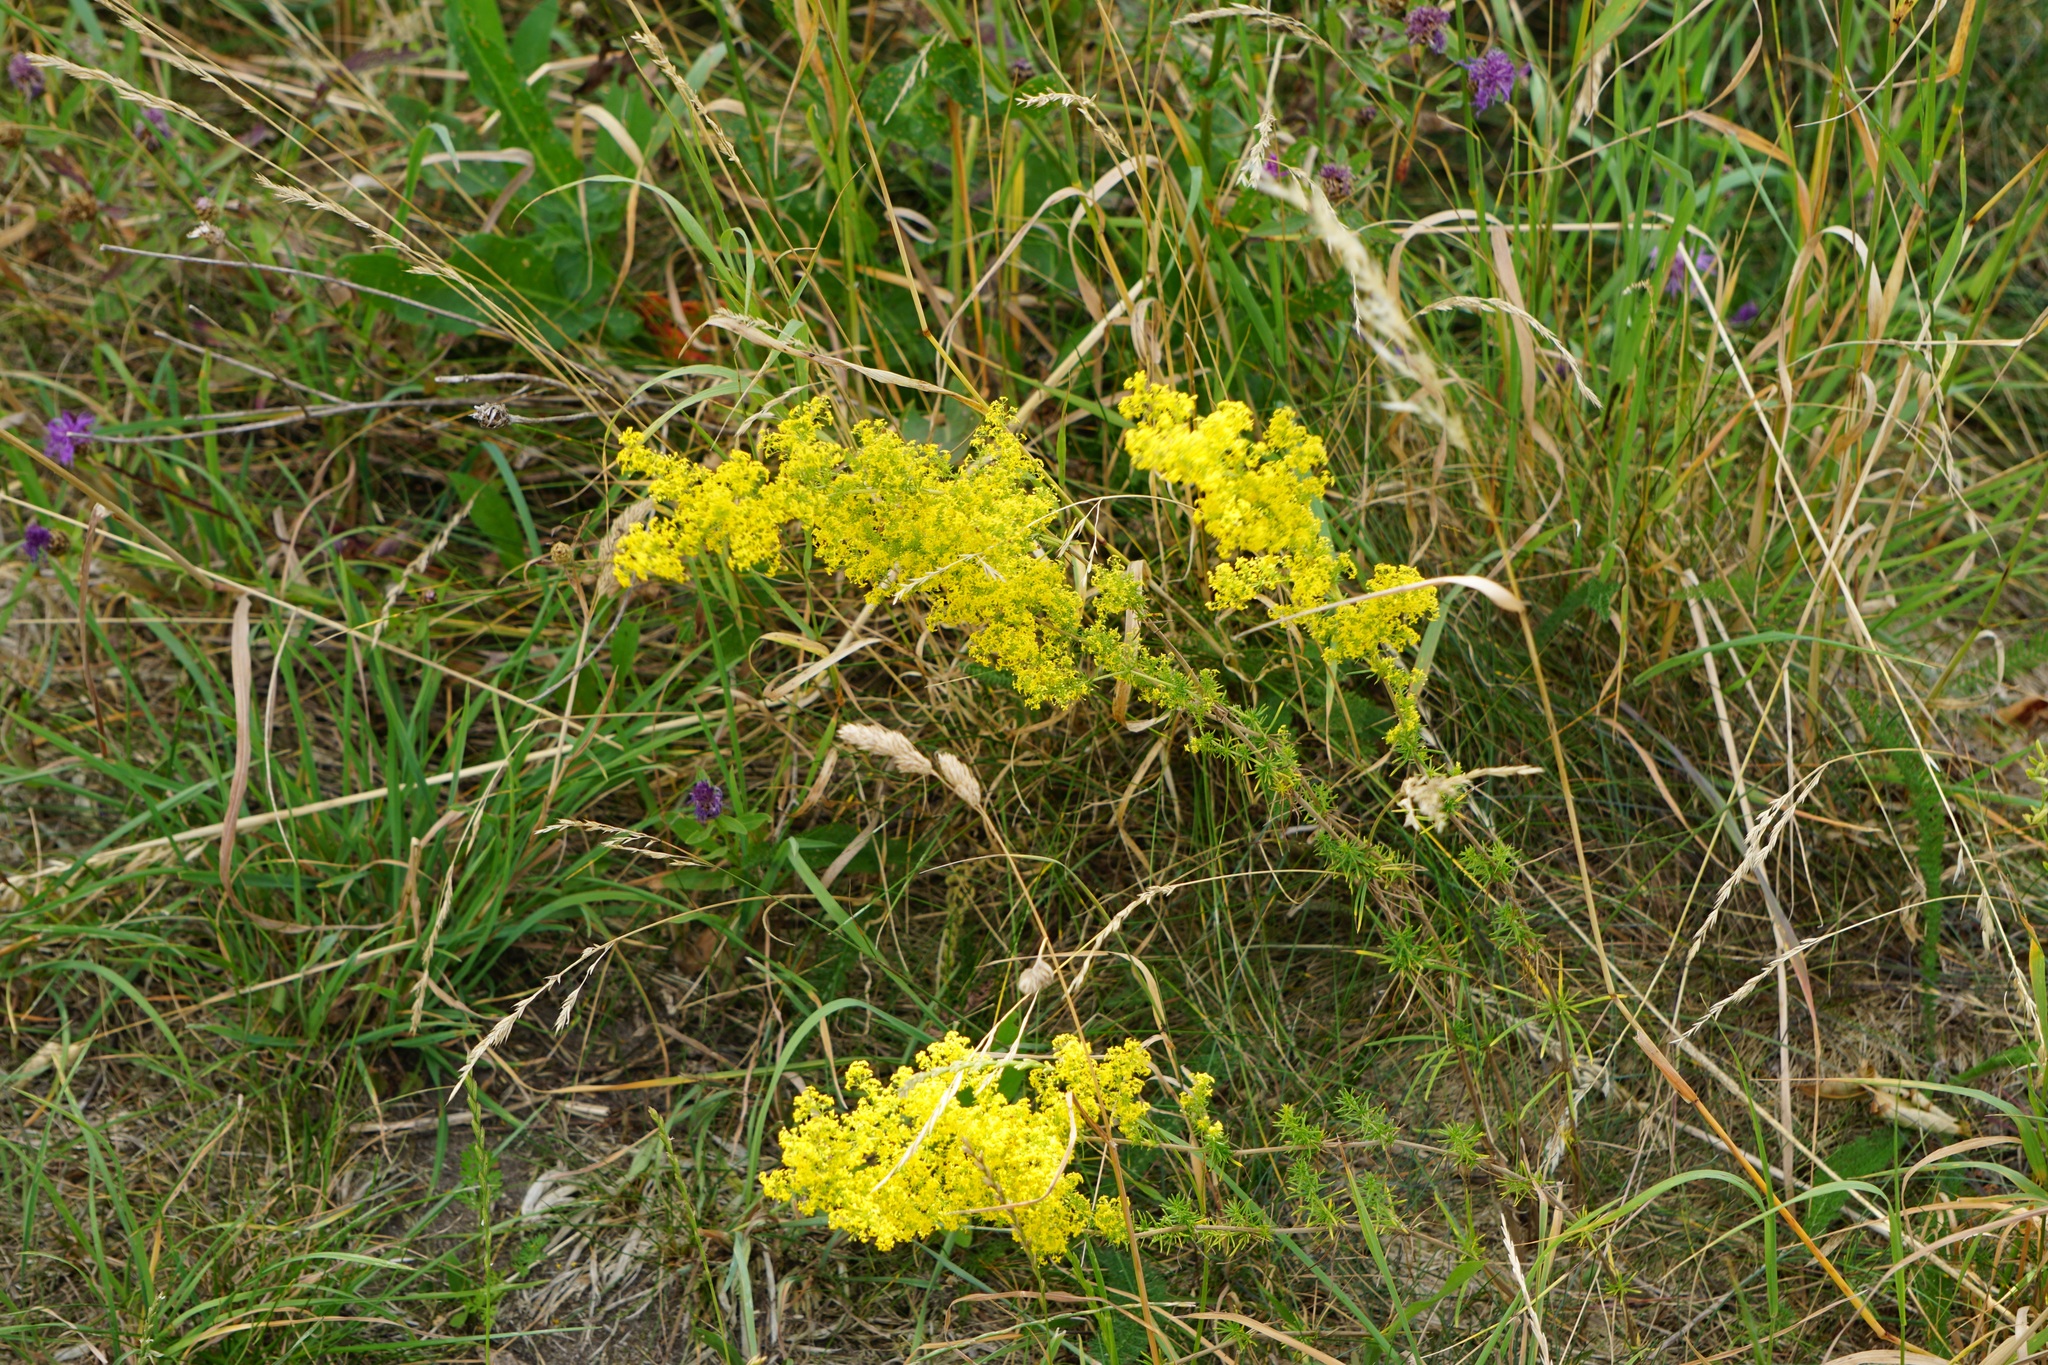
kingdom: Plantae
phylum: Tracheophyta
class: Magnoliopsida
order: Gentianales
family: Rubiaceae
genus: Galium
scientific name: Galium verum
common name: Lady's bedstraw
